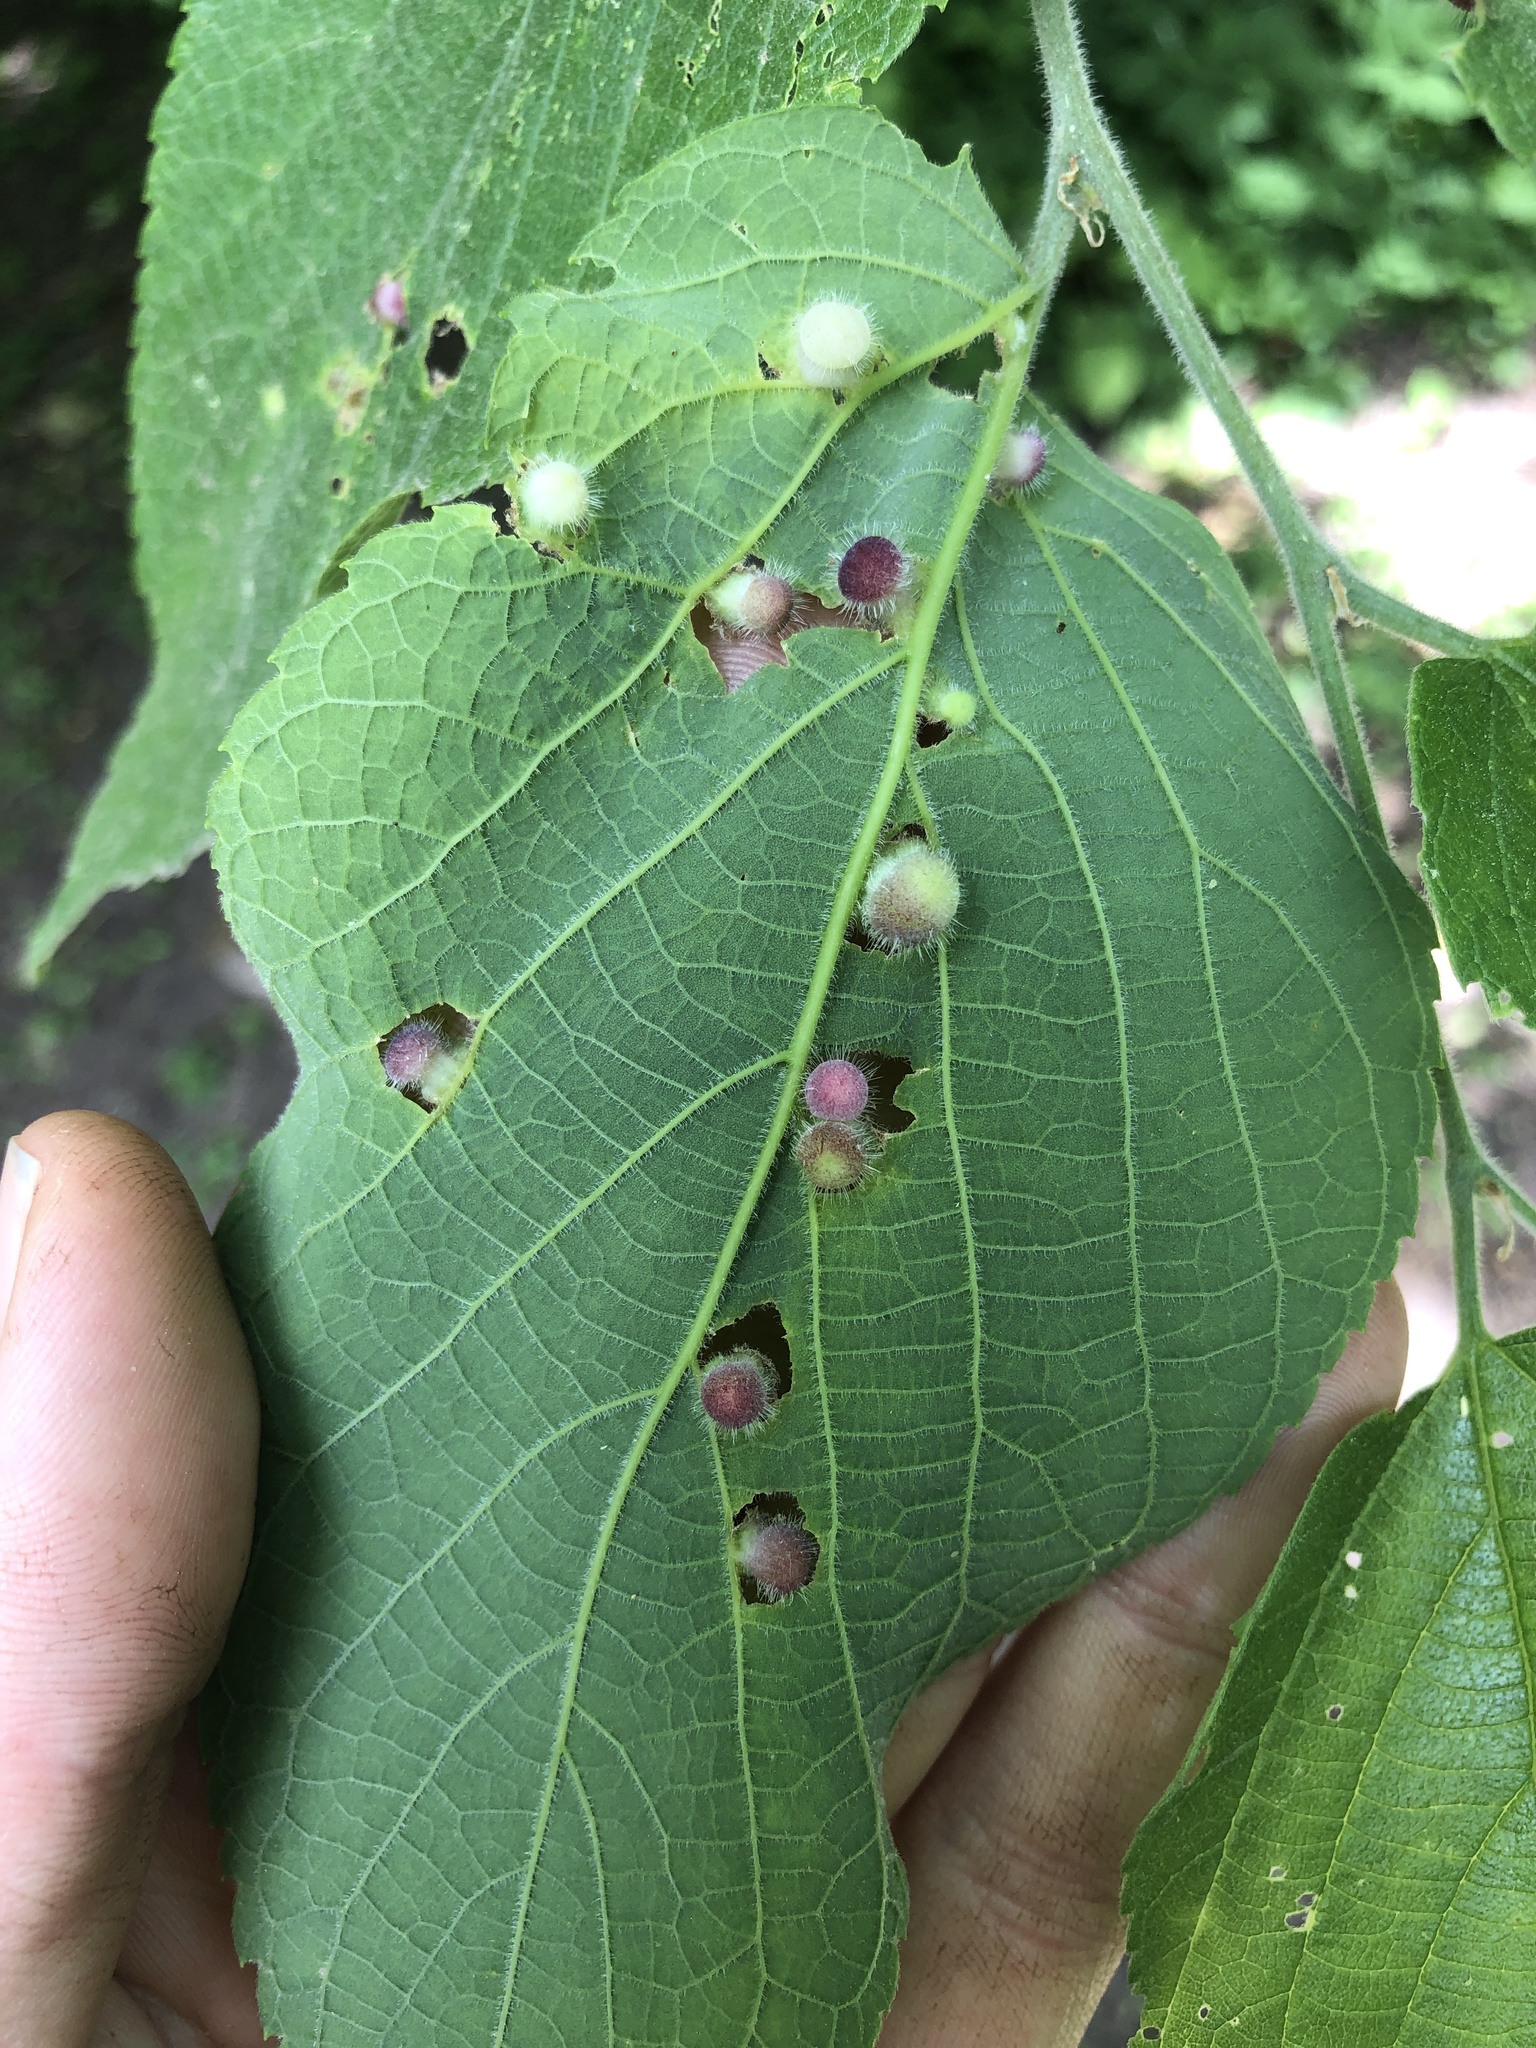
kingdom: Animalia
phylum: Arthropoda
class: Insecta
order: Hemiptera
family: Aphalaridae
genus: Pachypsylla
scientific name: Pachypsylla celtidismamma
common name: Hackberry nipplegall psyllid
